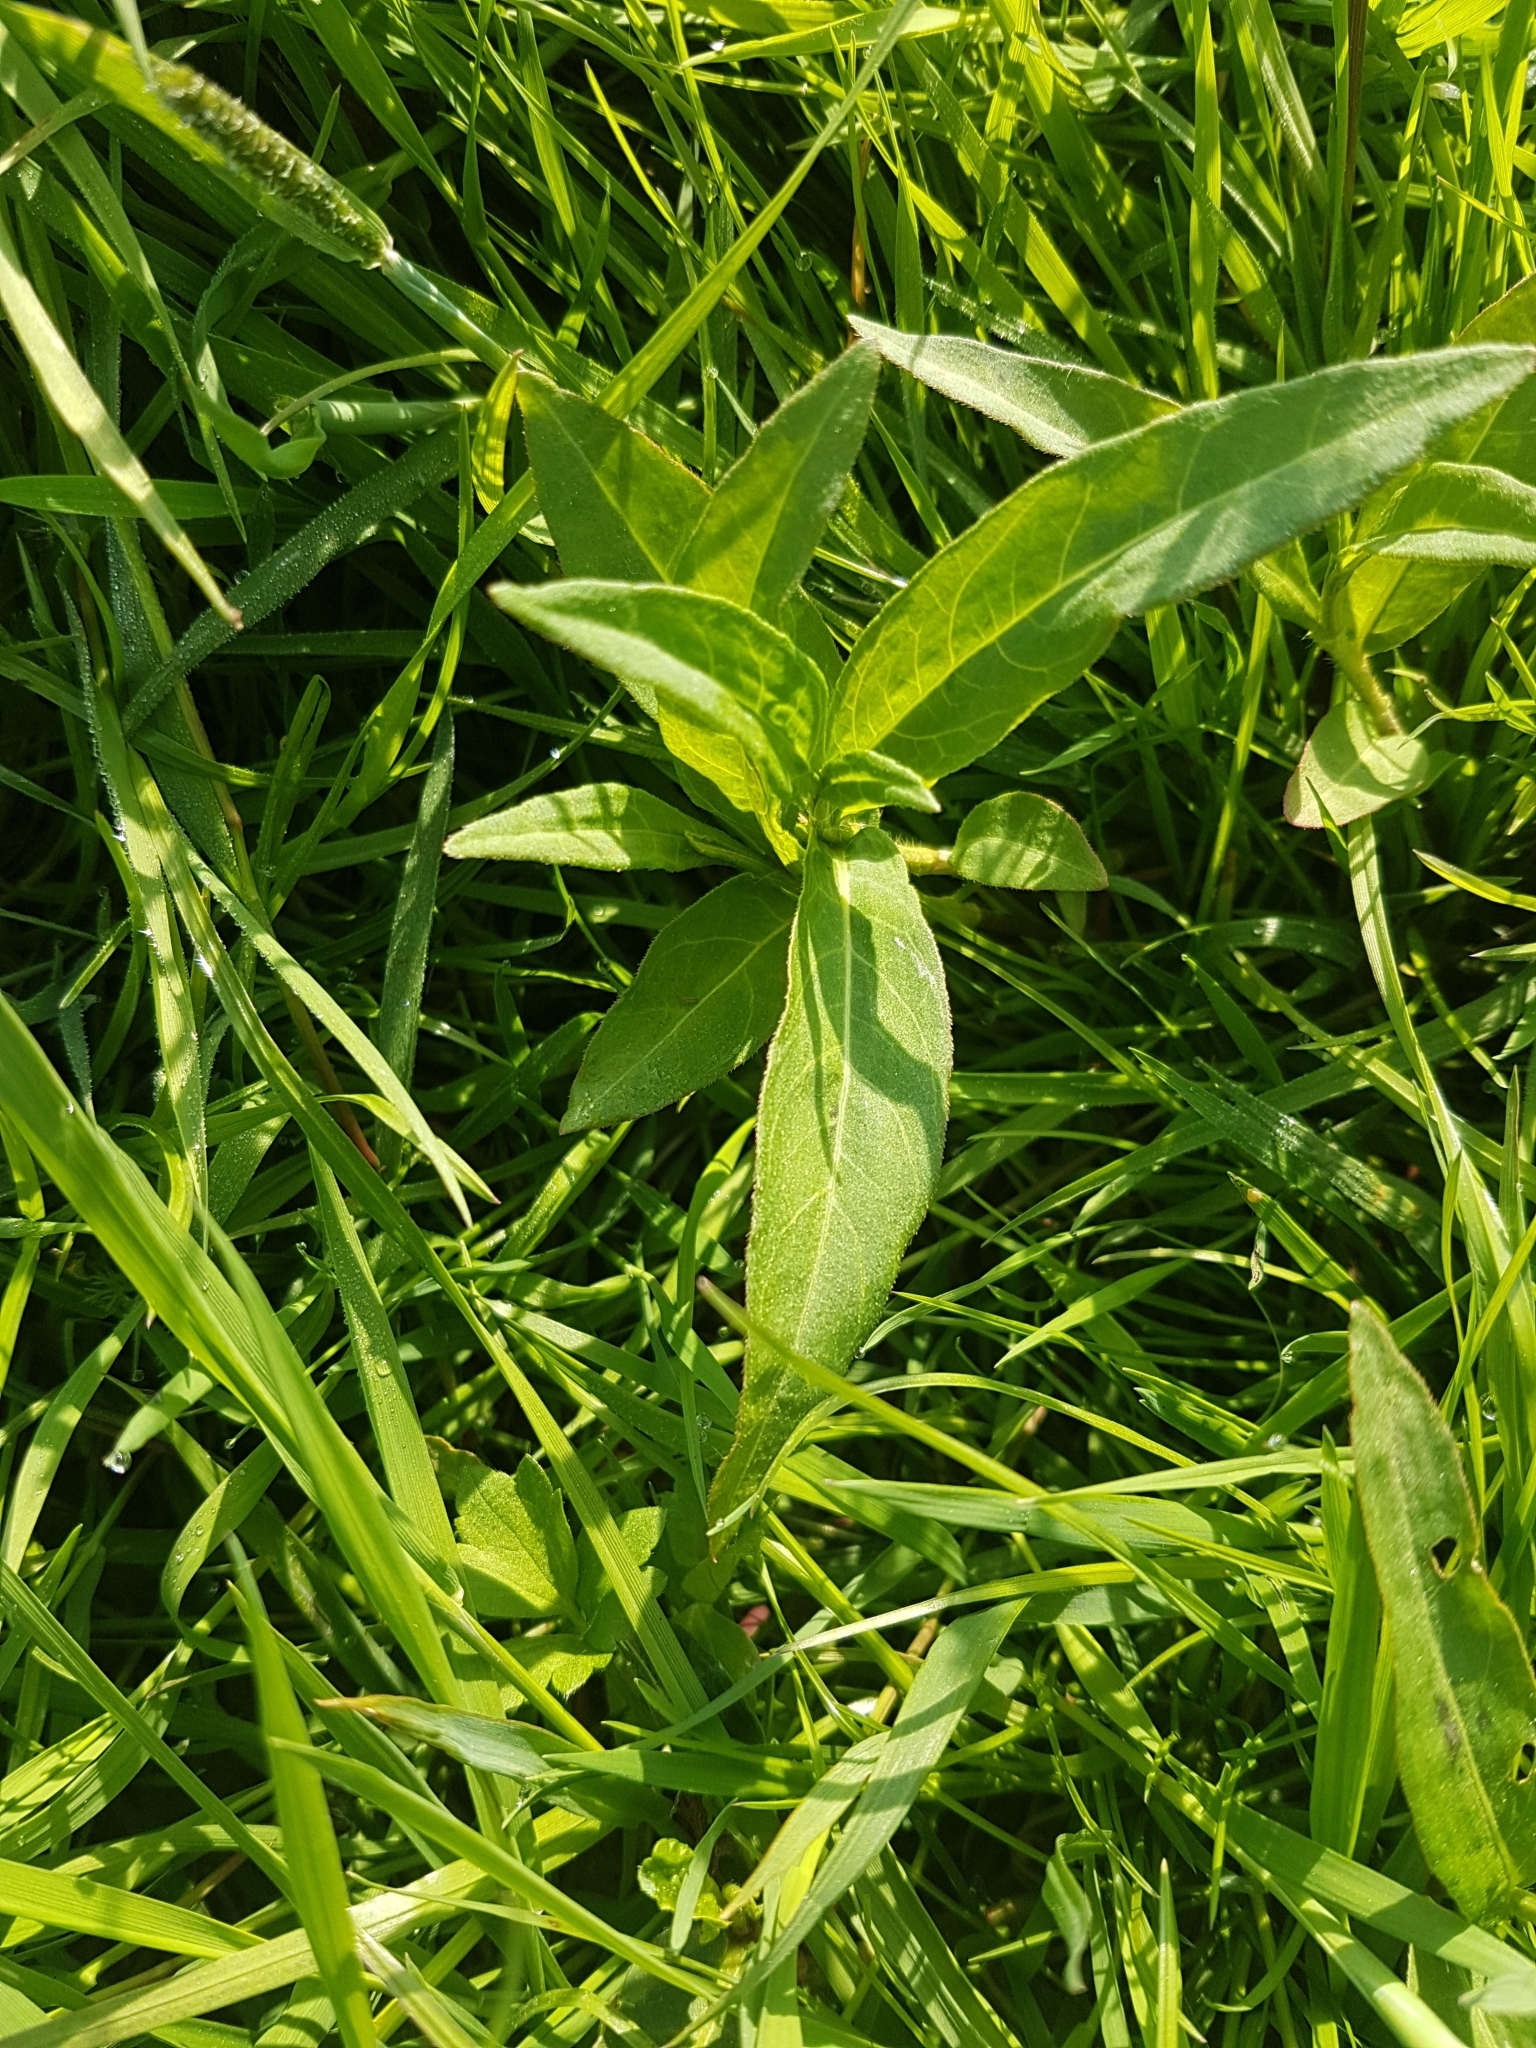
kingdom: Plantae
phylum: Tracheophyta
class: Magnoliopsida
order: Caryophyllales
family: Polygonaceae
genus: Persicaria
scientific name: Persicaria amphibia
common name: Amphibious bistort
